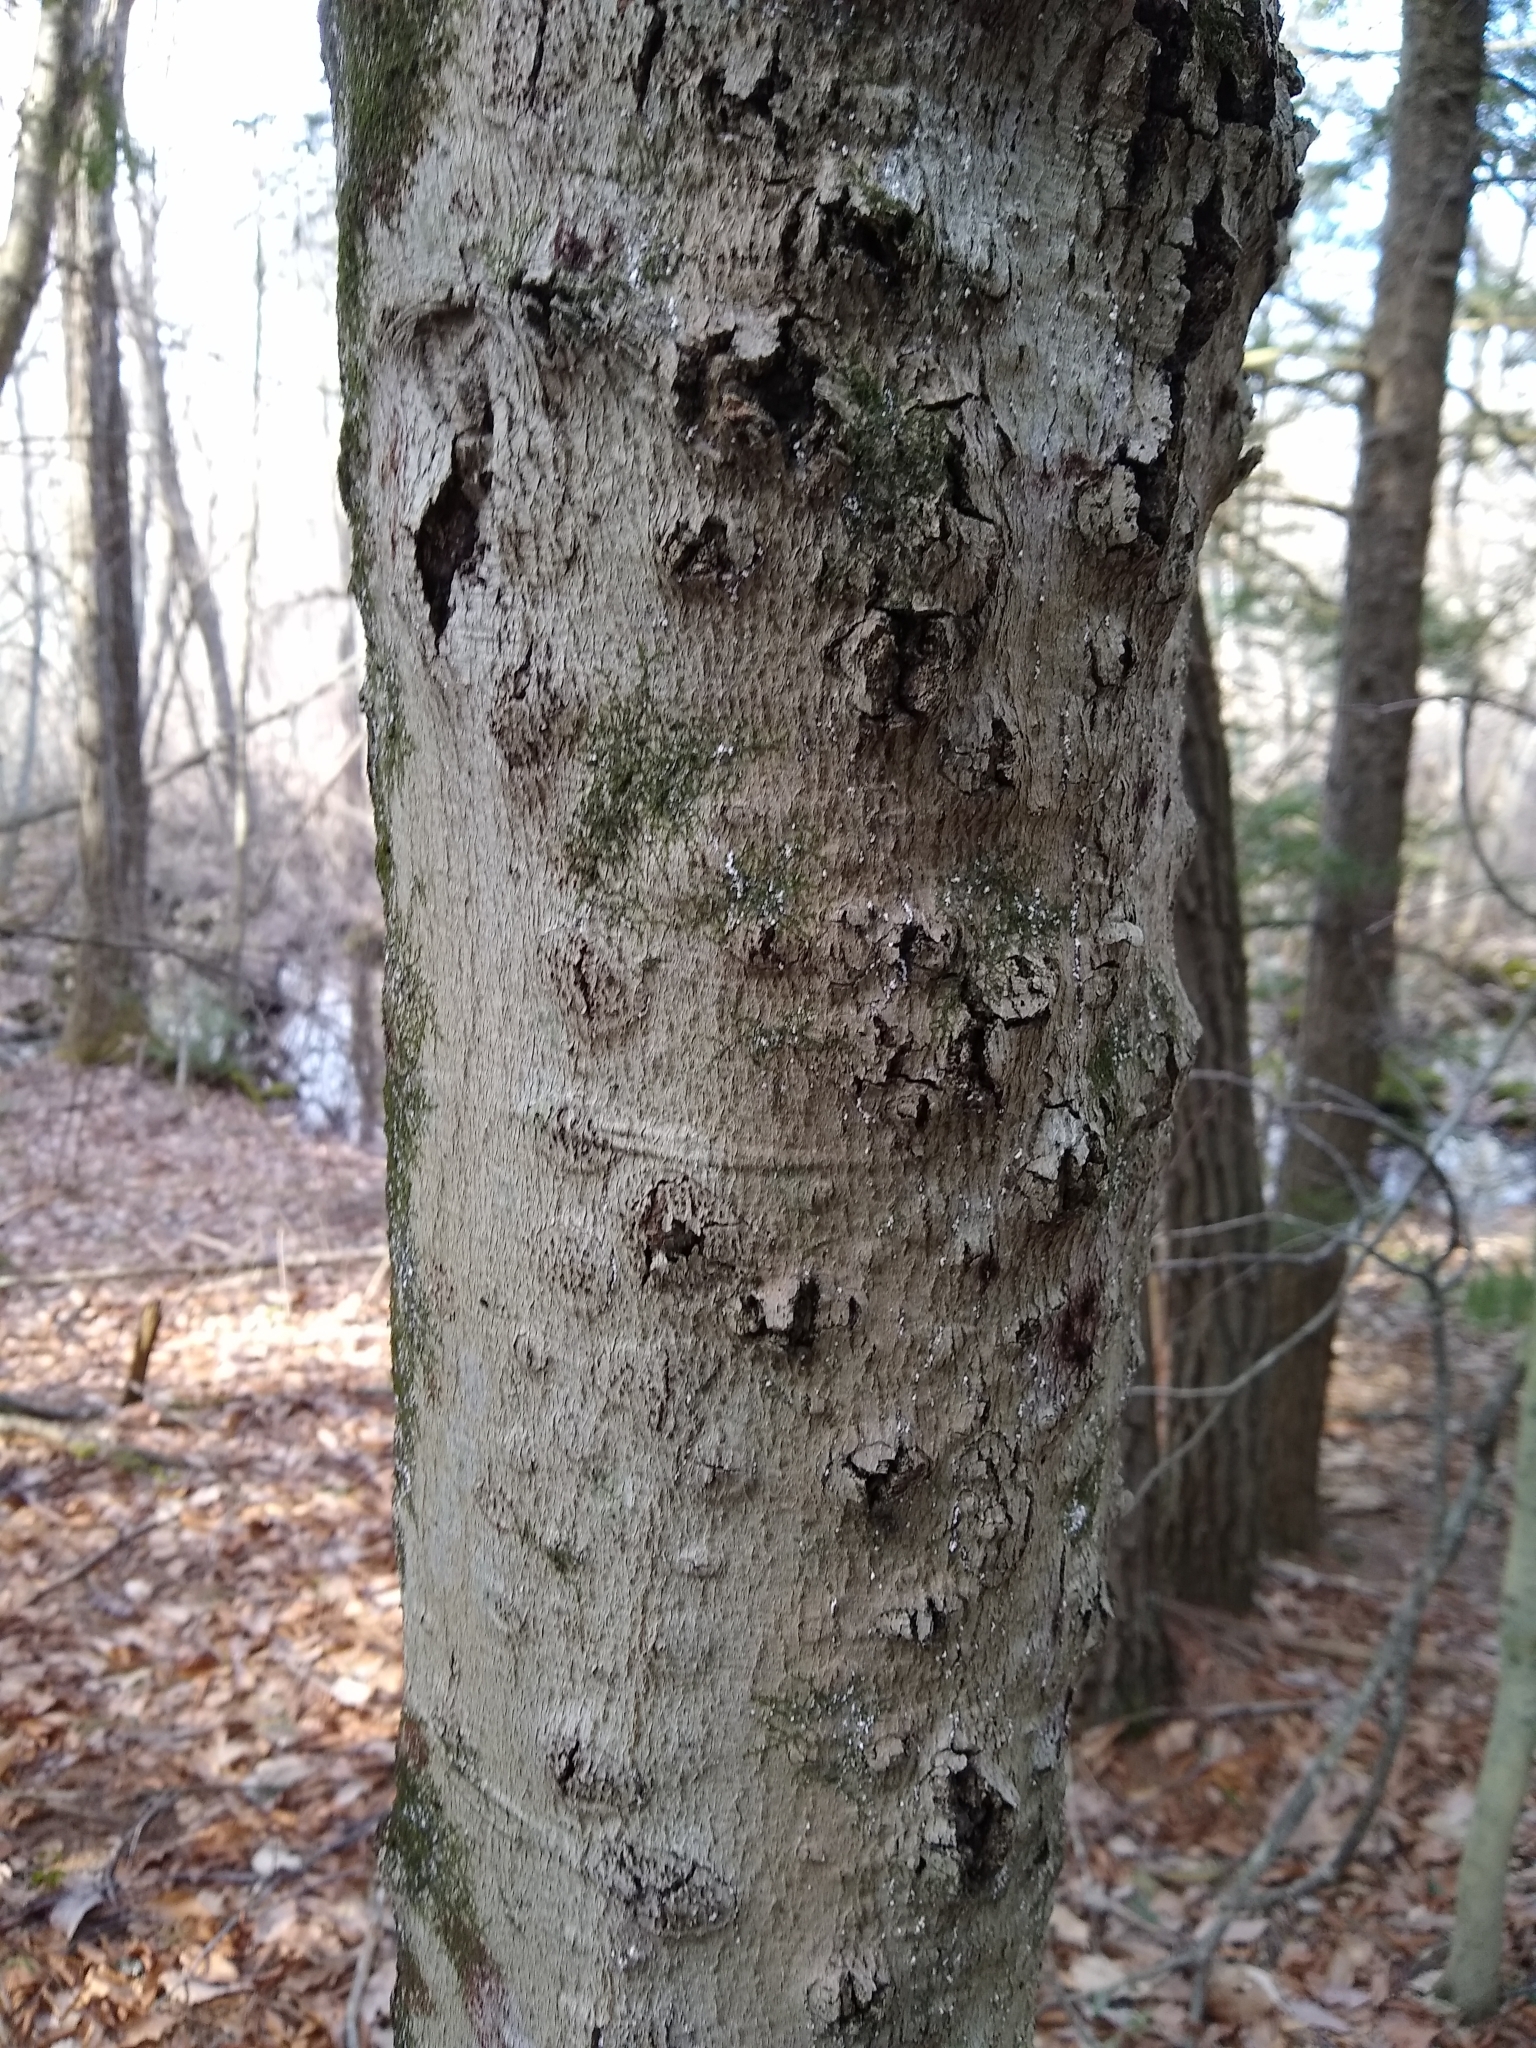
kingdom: Fungi
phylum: Ascomycota
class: Sordariomycetes
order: Hypocreales
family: Nectriaceae
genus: Neonectria
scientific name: Neonectria
